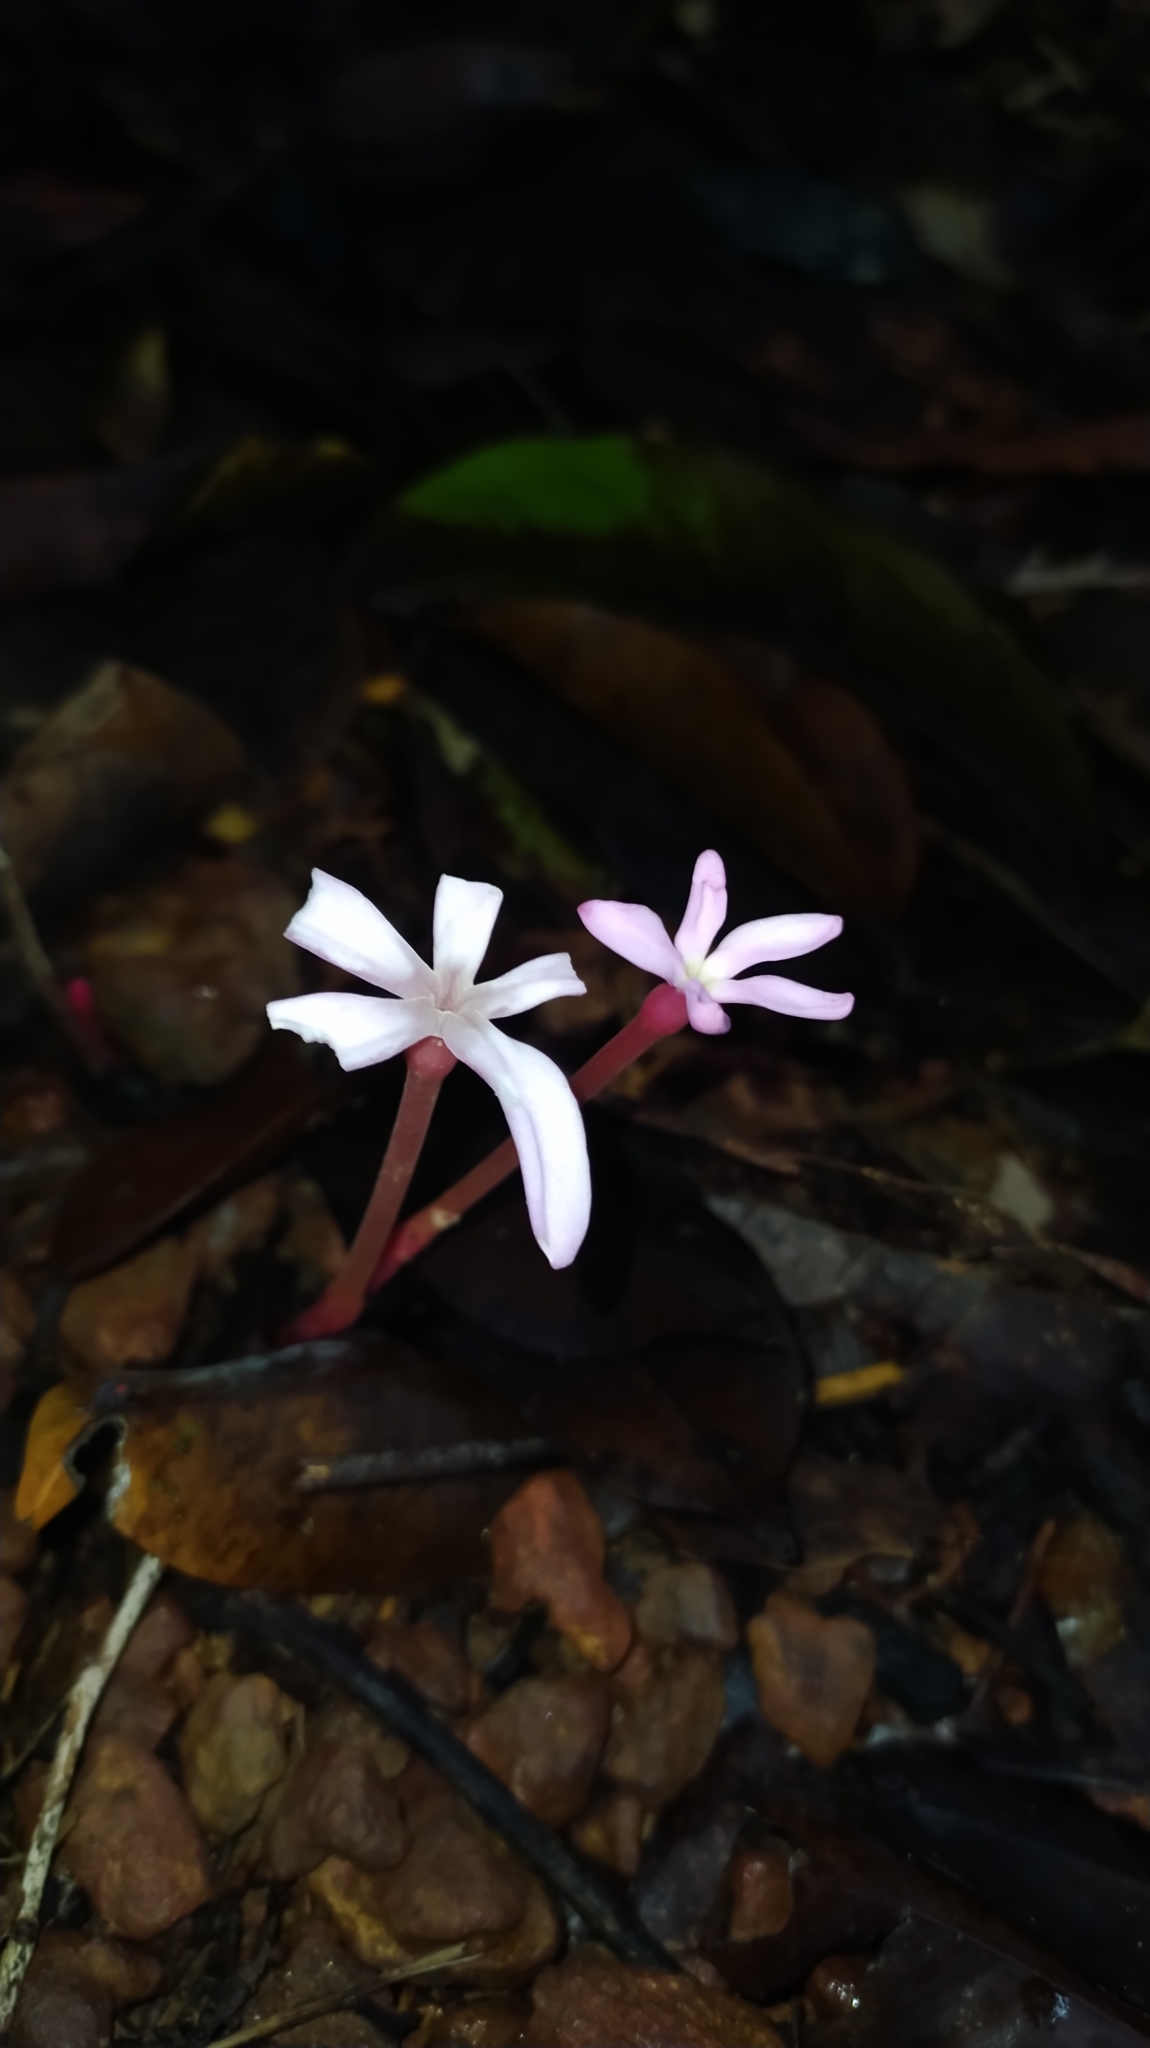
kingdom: Plantae
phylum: Tracheophyta
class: Magnoliopsida
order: Gentianales
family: Gentianaceae
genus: Voyria
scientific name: Voyria rosea
